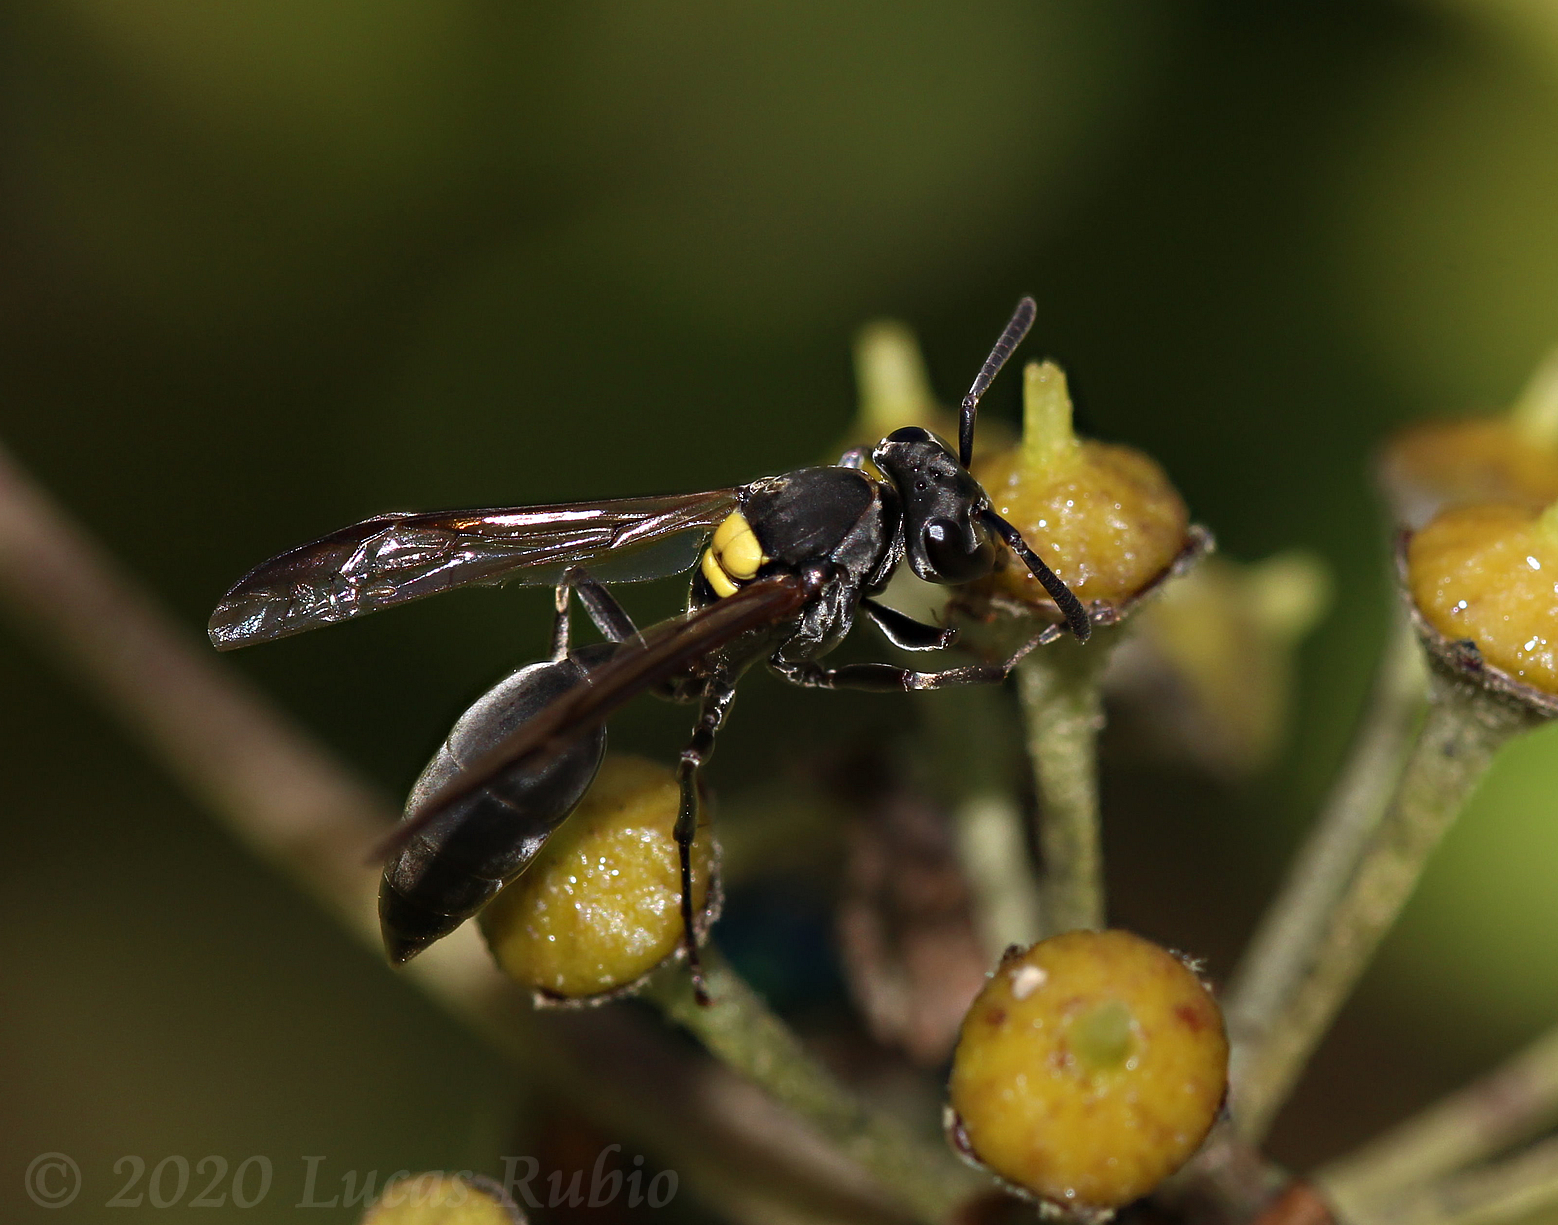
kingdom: Animalia
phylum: Arthropoda
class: Insecta
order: Hymenoptera
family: Eumenidae
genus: Polybia
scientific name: Polybia scutellaris
